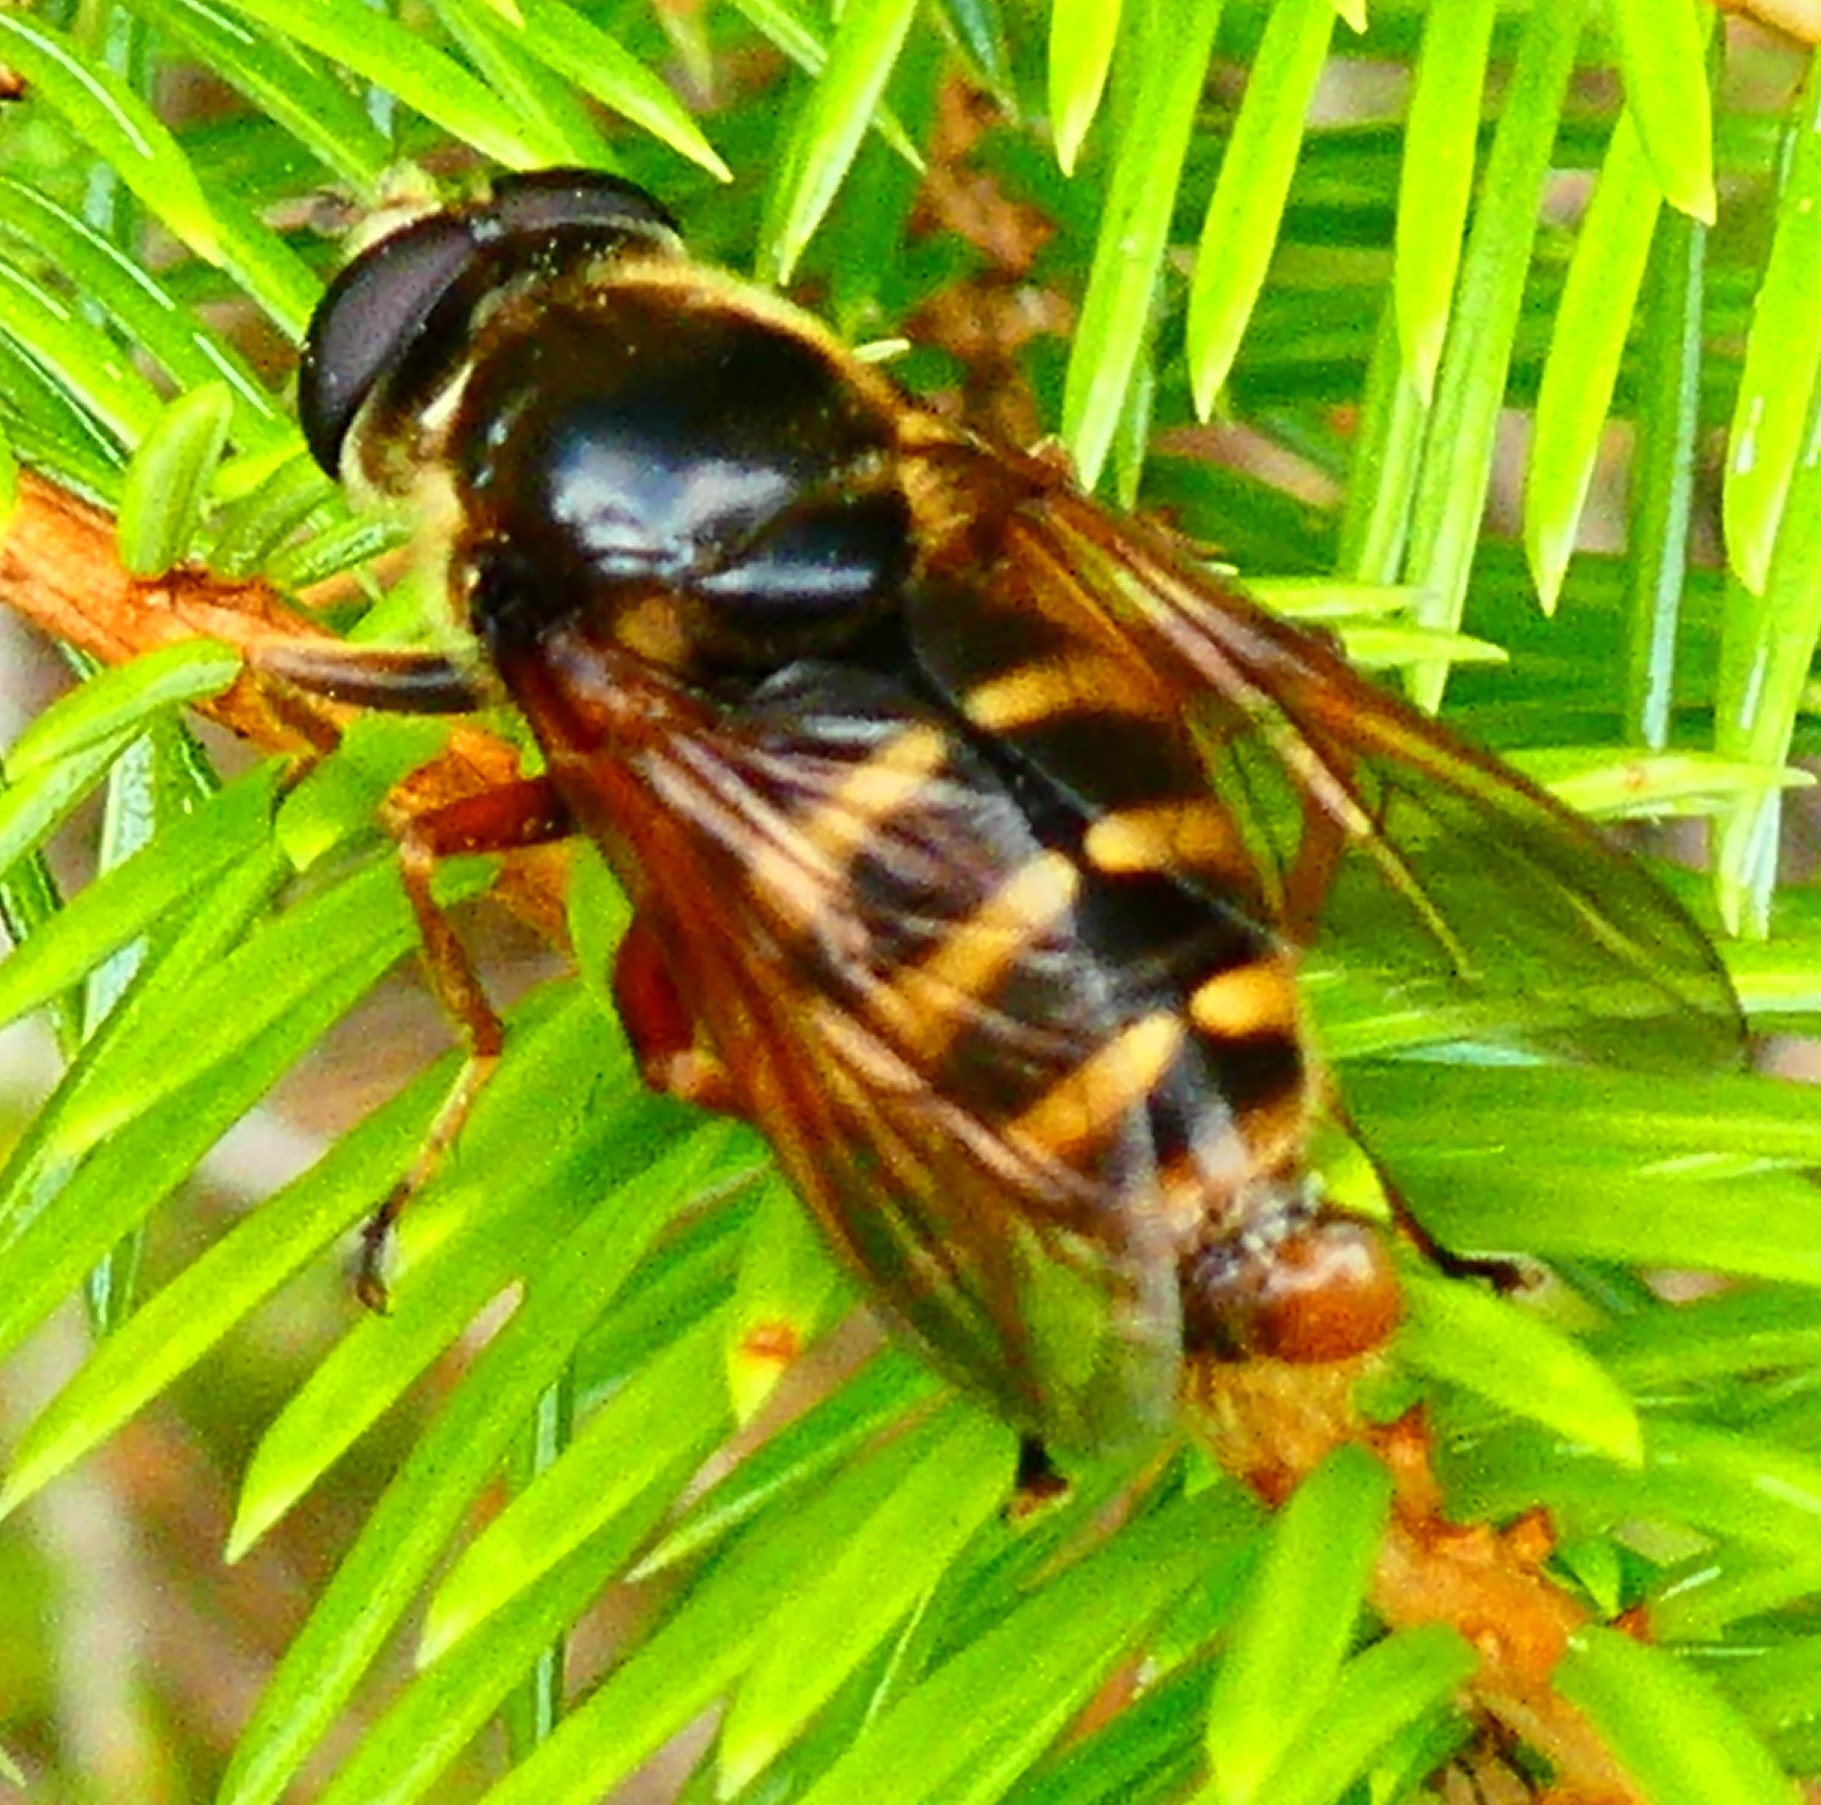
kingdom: Animalia
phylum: Arthropoda
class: Insecta
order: Diptera
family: Syrphidae
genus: Sericomyia
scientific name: Sericomyia silentis
